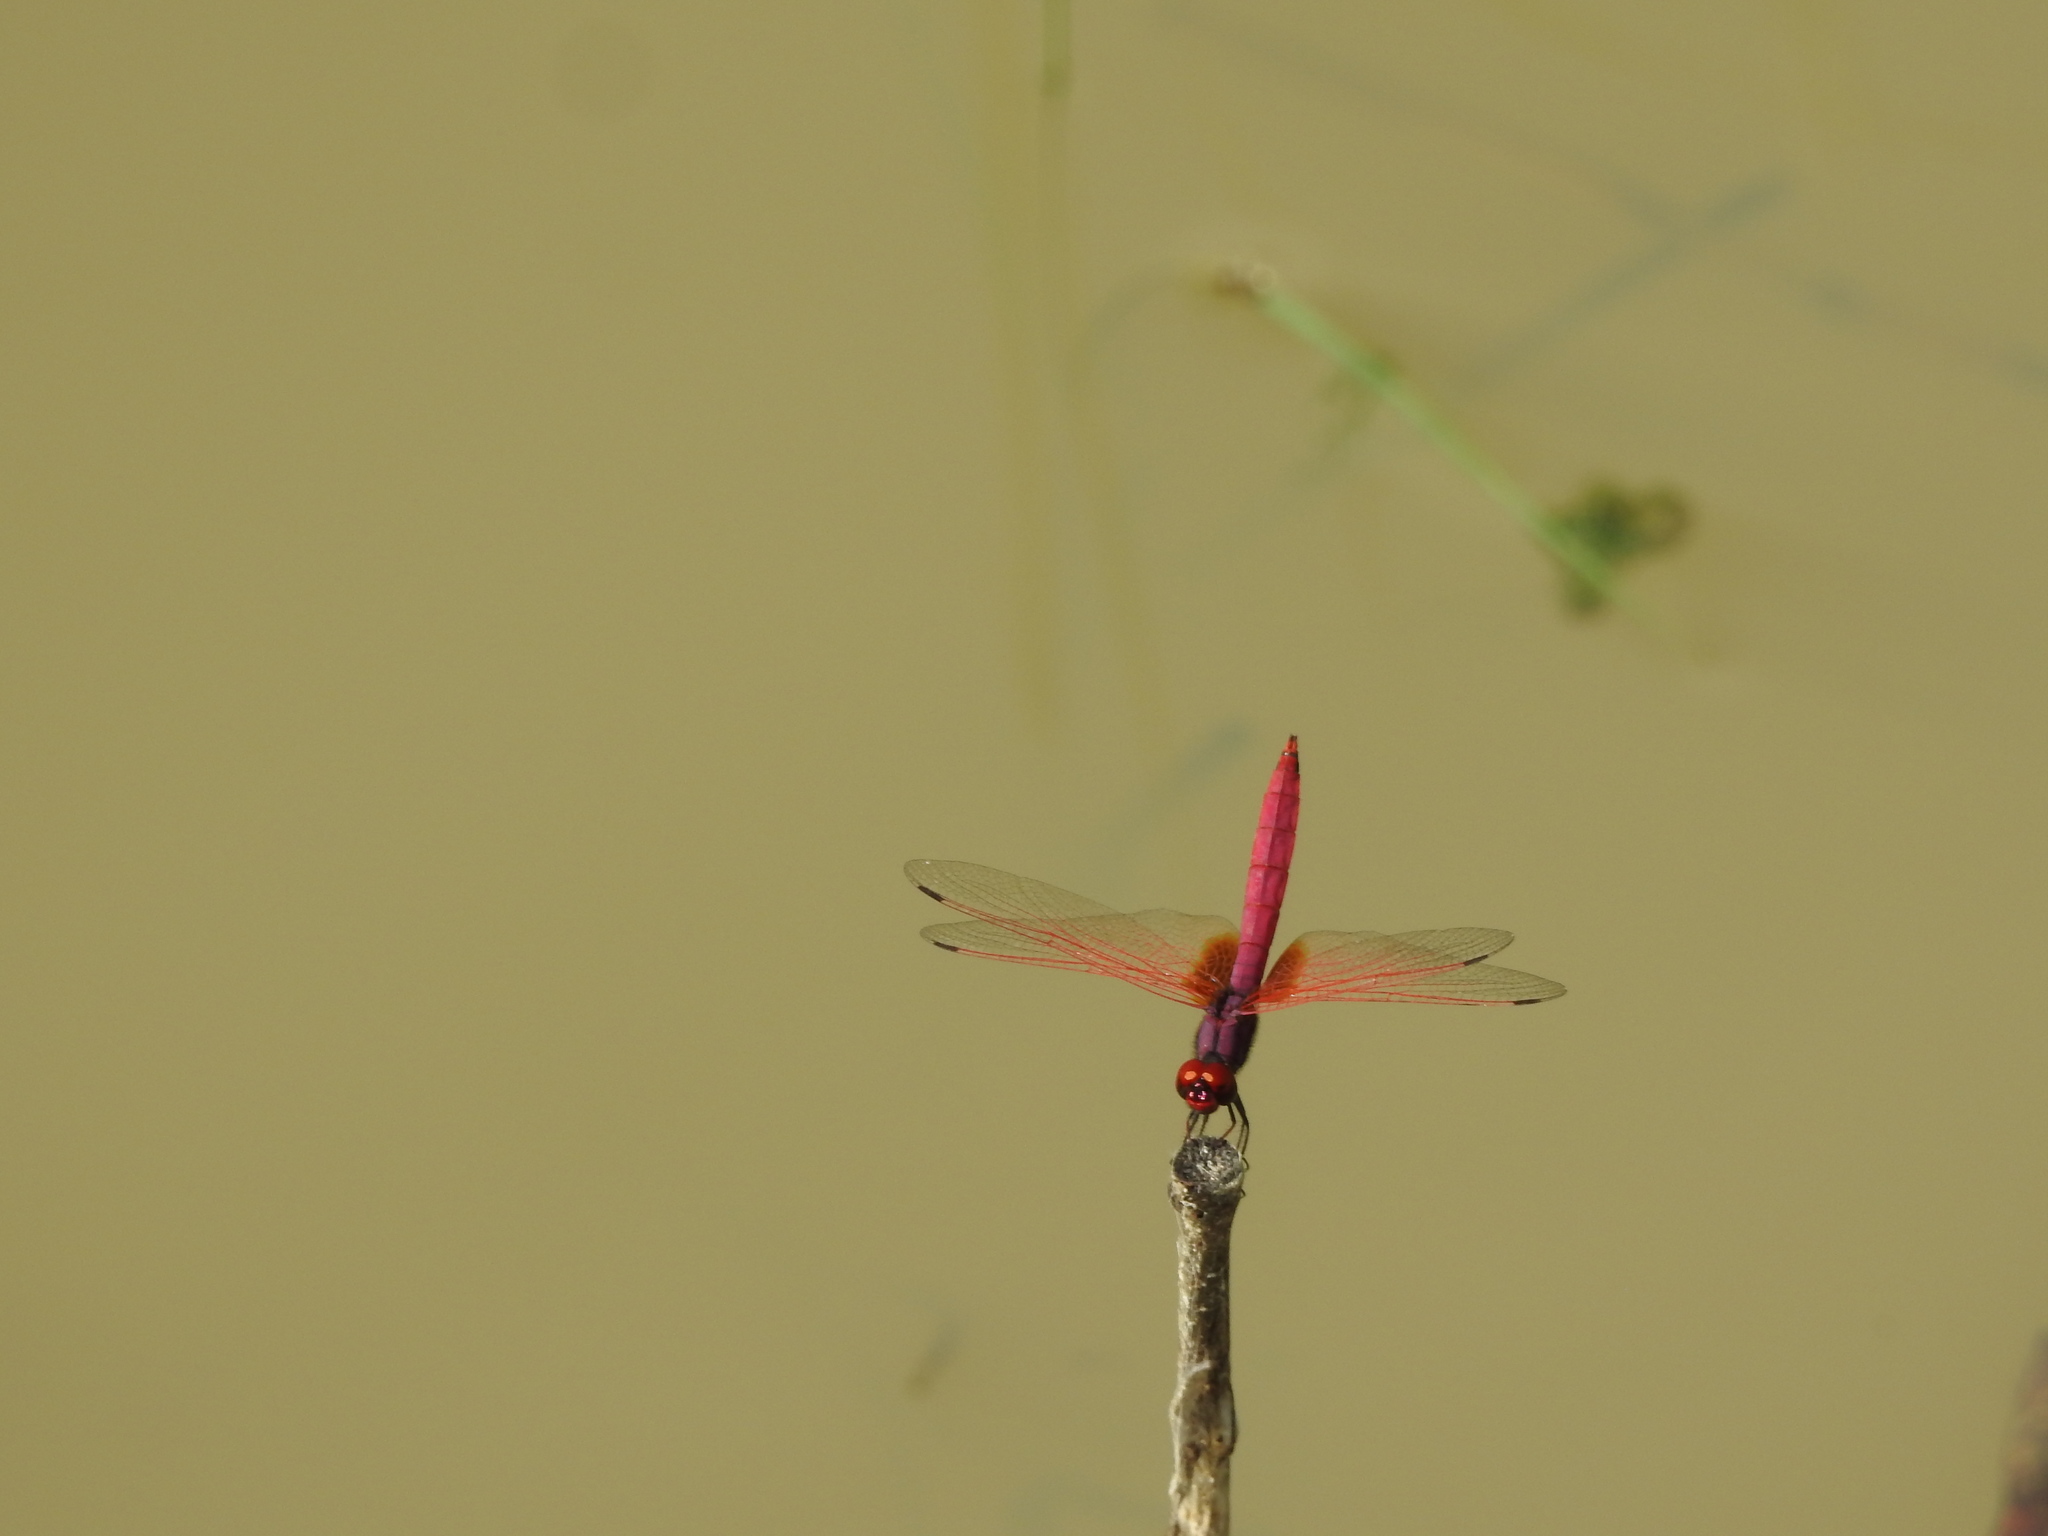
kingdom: Animalia
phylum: Arthropoda
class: Insecta
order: Odonata
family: Libellulidae
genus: Trithemis
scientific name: Trithemis aurora
